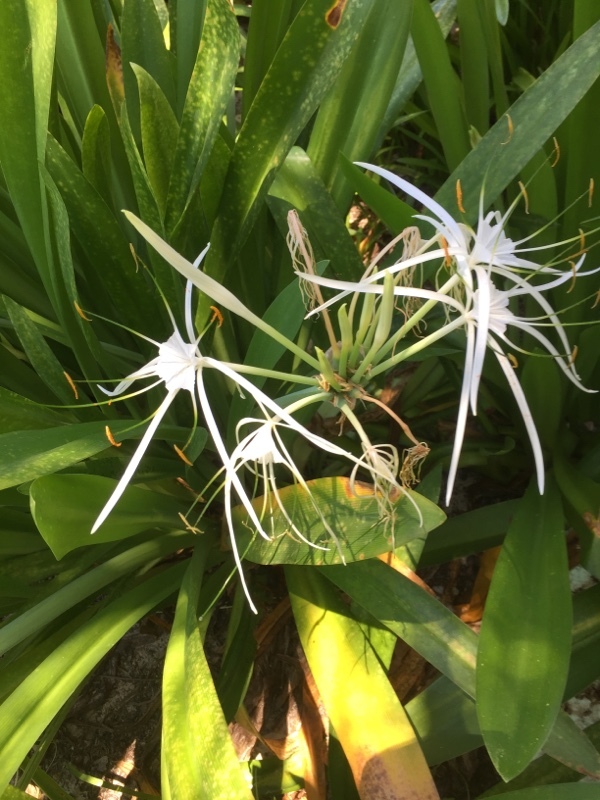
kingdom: Plantae
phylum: Tracheophyta
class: Liliopsida
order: Asparagales
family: Amaryllidaceae
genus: Hymenocallis
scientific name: Hymenocallis littoralis
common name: Beach spiderlily
